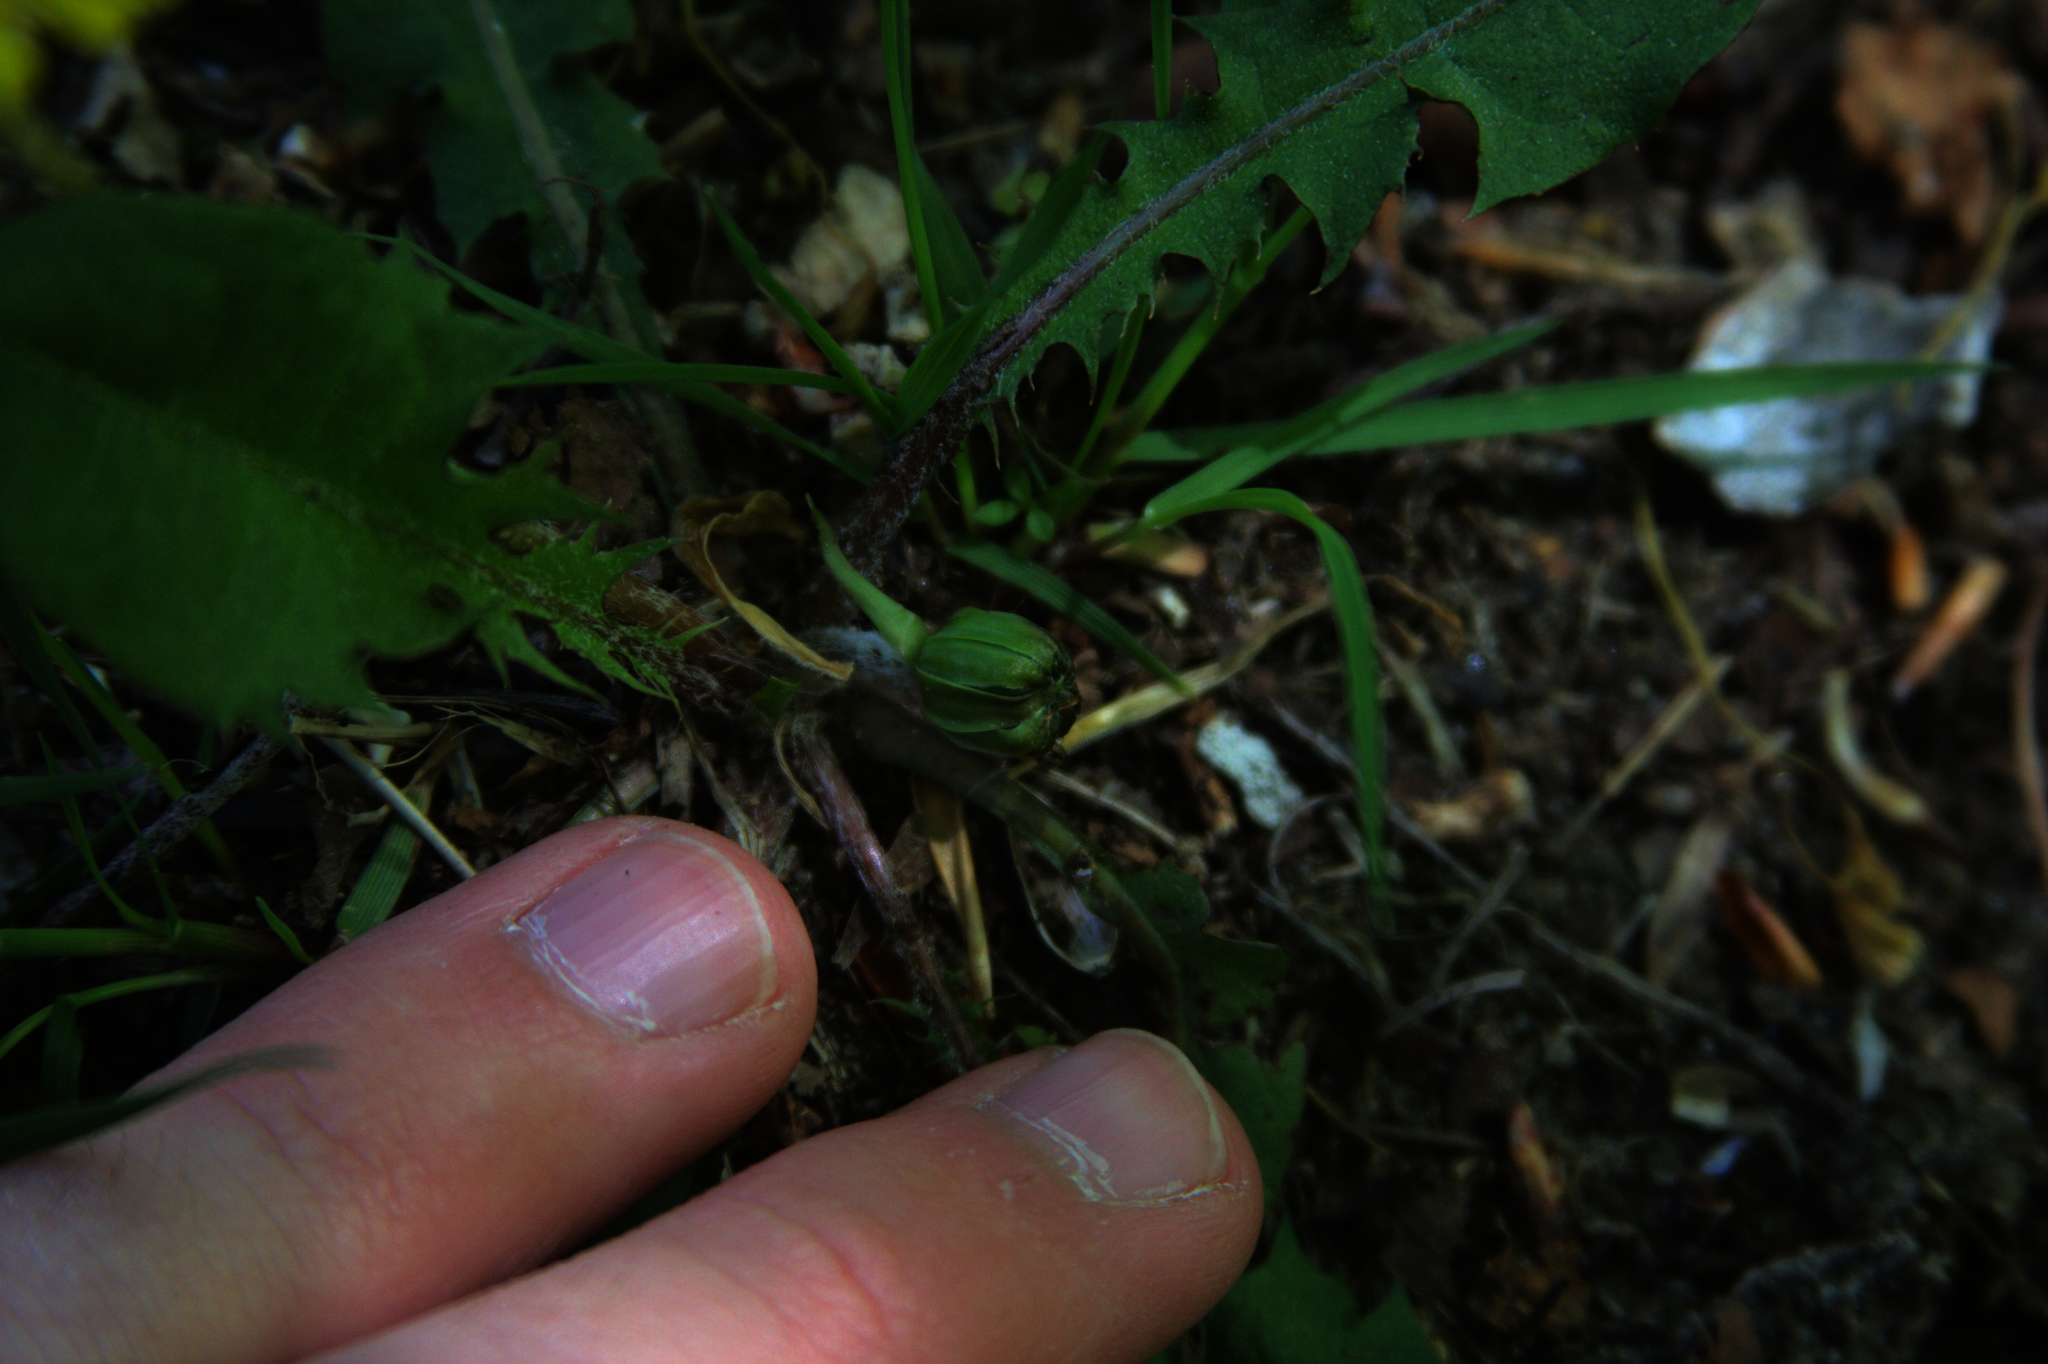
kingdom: Plantae
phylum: Tracheophyta
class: Magnoliopsida
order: Asterales
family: Asteraceae
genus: Taraxacum
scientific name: Taraxacum officinale
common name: Common dandelion
